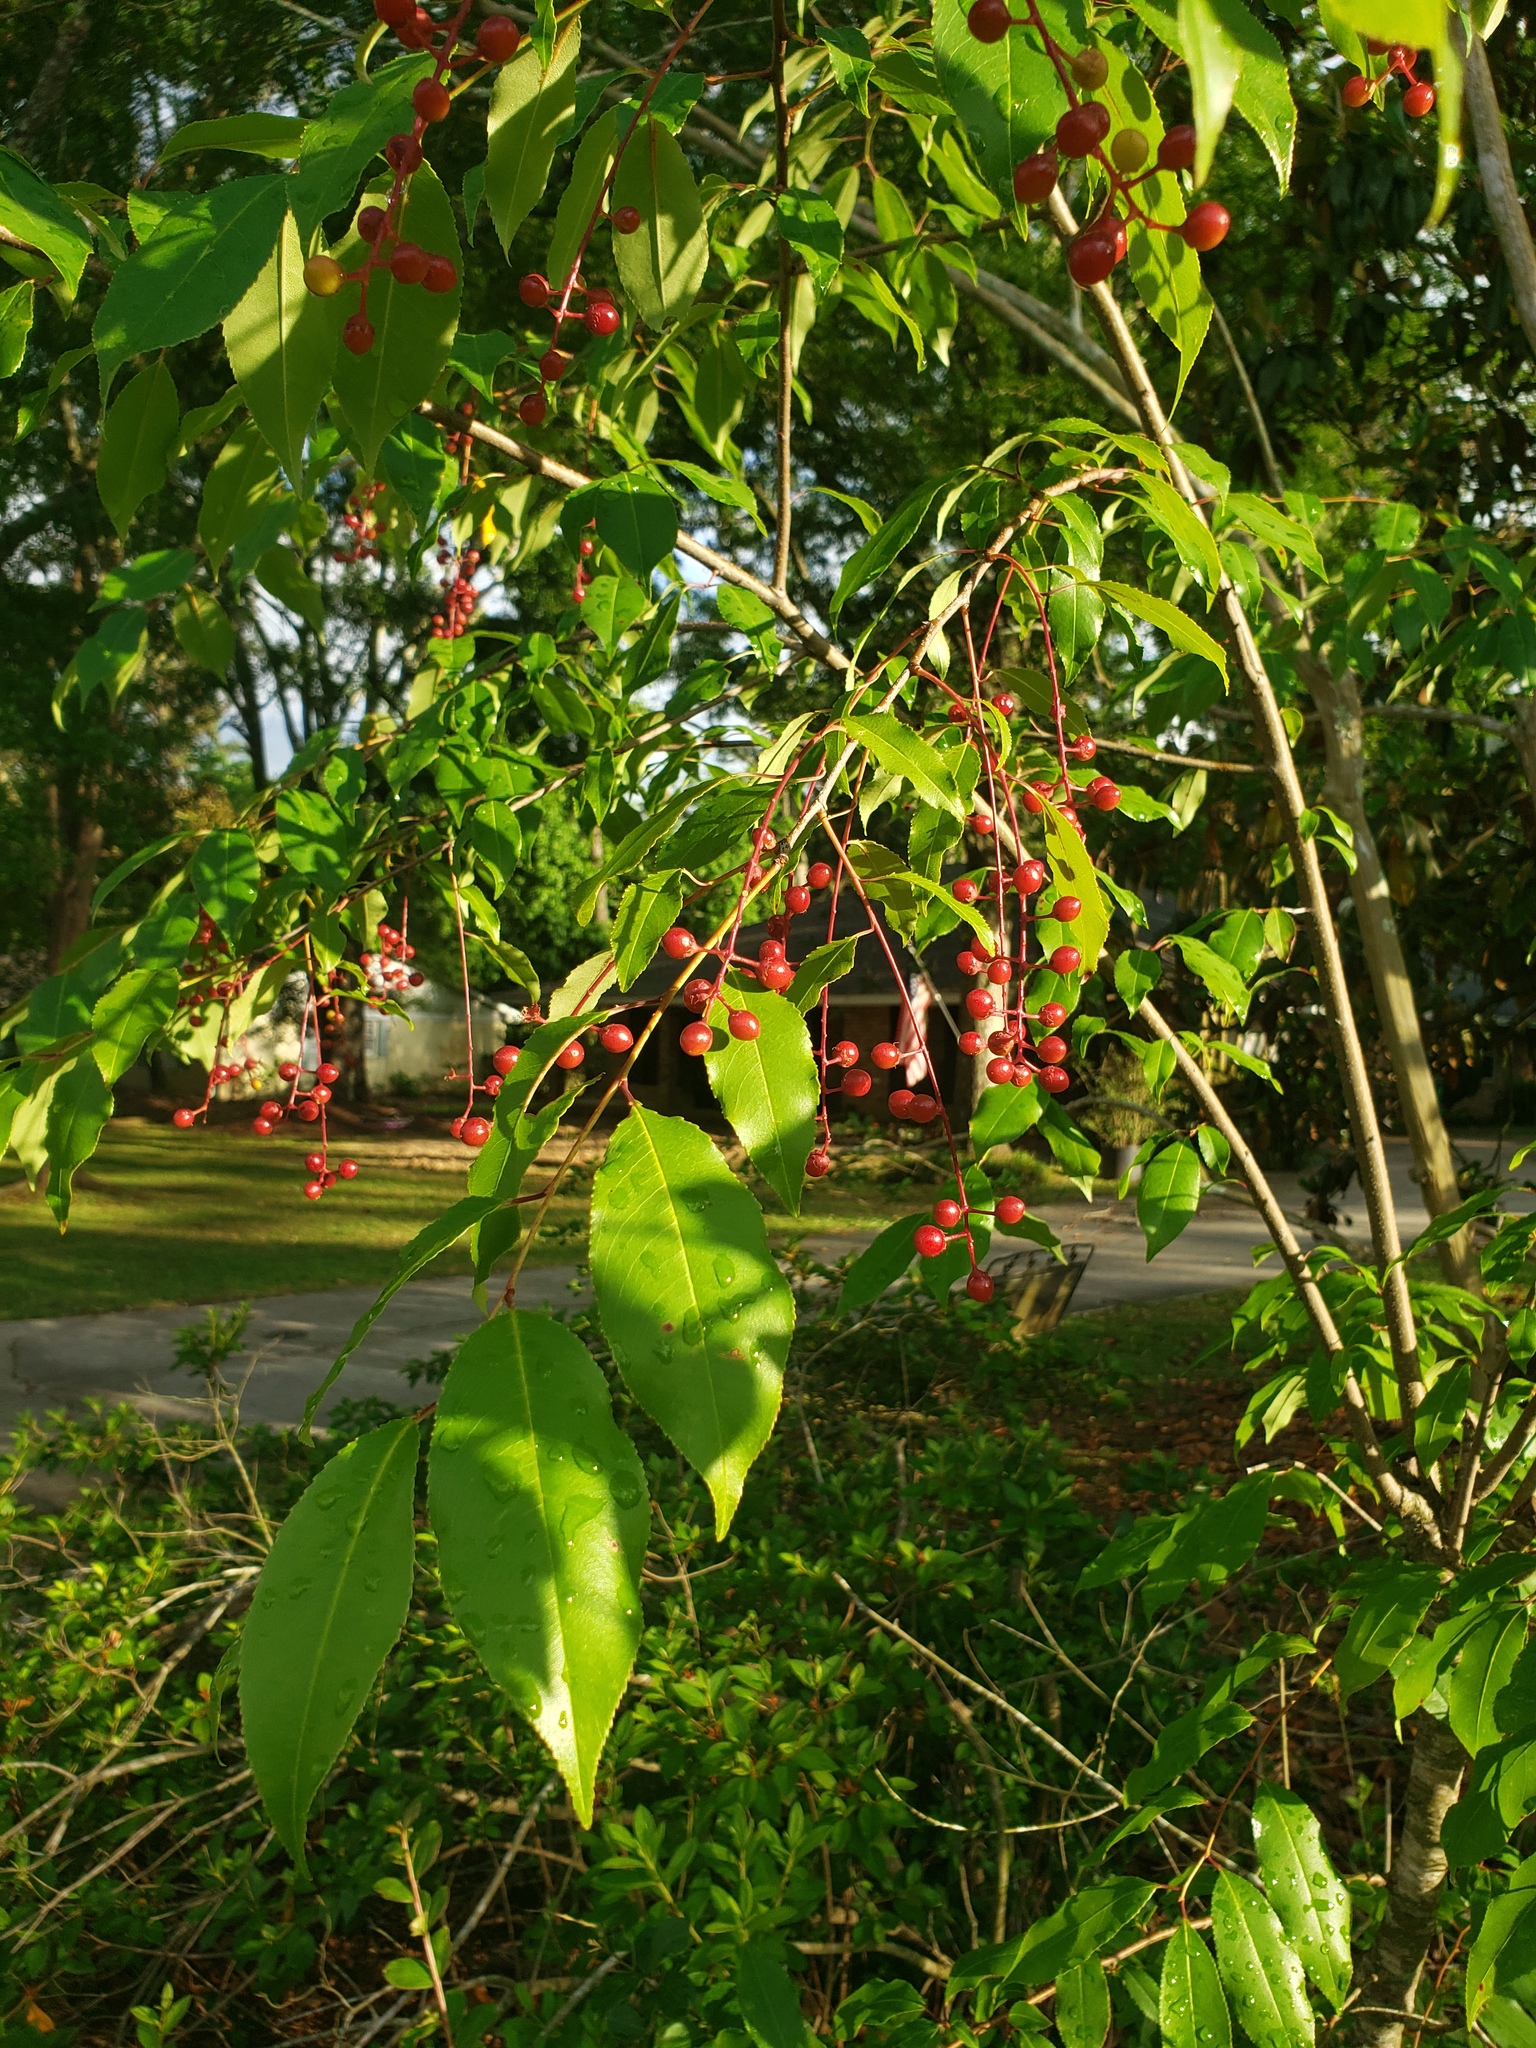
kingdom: Plantae
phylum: Tracheophyta
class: Magnoliopsida
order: Rosales
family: Rosaceae
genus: Prunus
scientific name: Prunus serotina
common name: Black cherry
